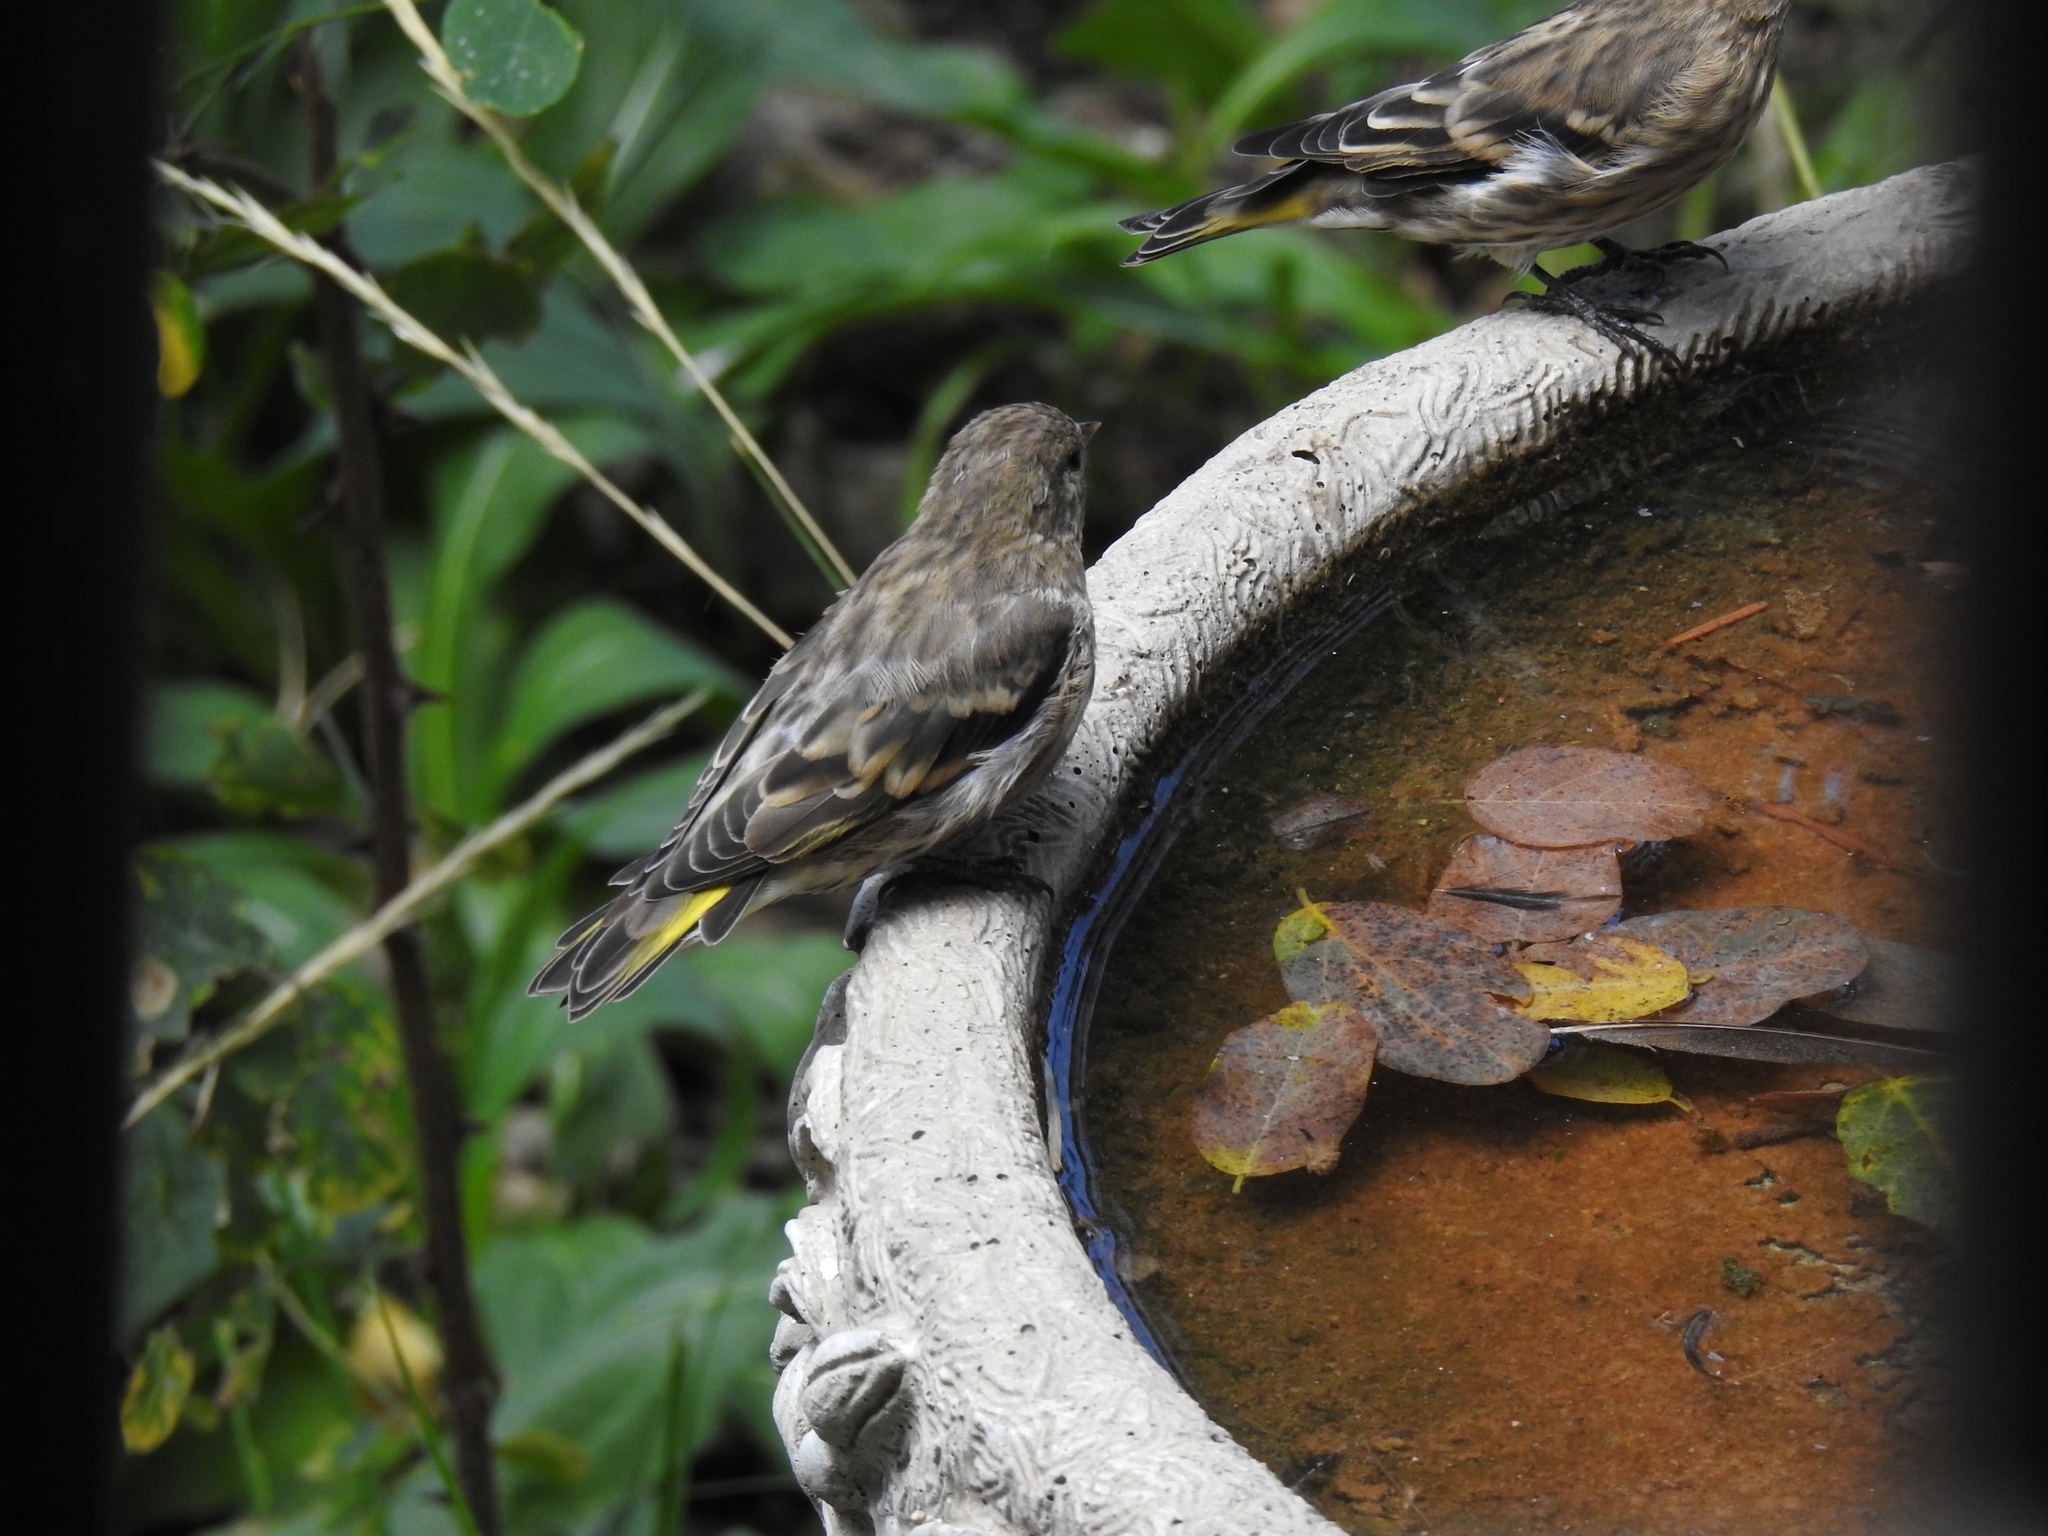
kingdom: Animalia
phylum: Chordata
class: Aves
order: Passeriformes
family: Fringillidae
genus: Spinus
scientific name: Spinus pinus
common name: Pine siskin
